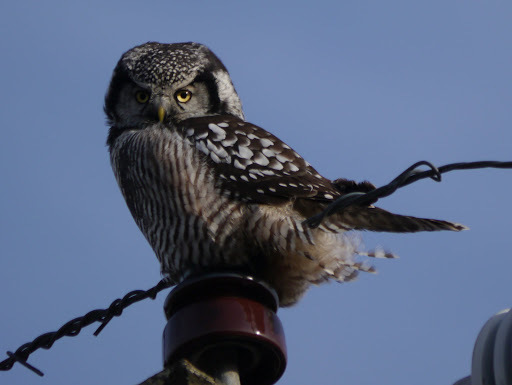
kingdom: Animalia
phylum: Chordata
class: Aves
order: Strigiformes
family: Strigidae
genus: Surnia
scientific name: Surnia ulula
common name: Northern hawk-owl
